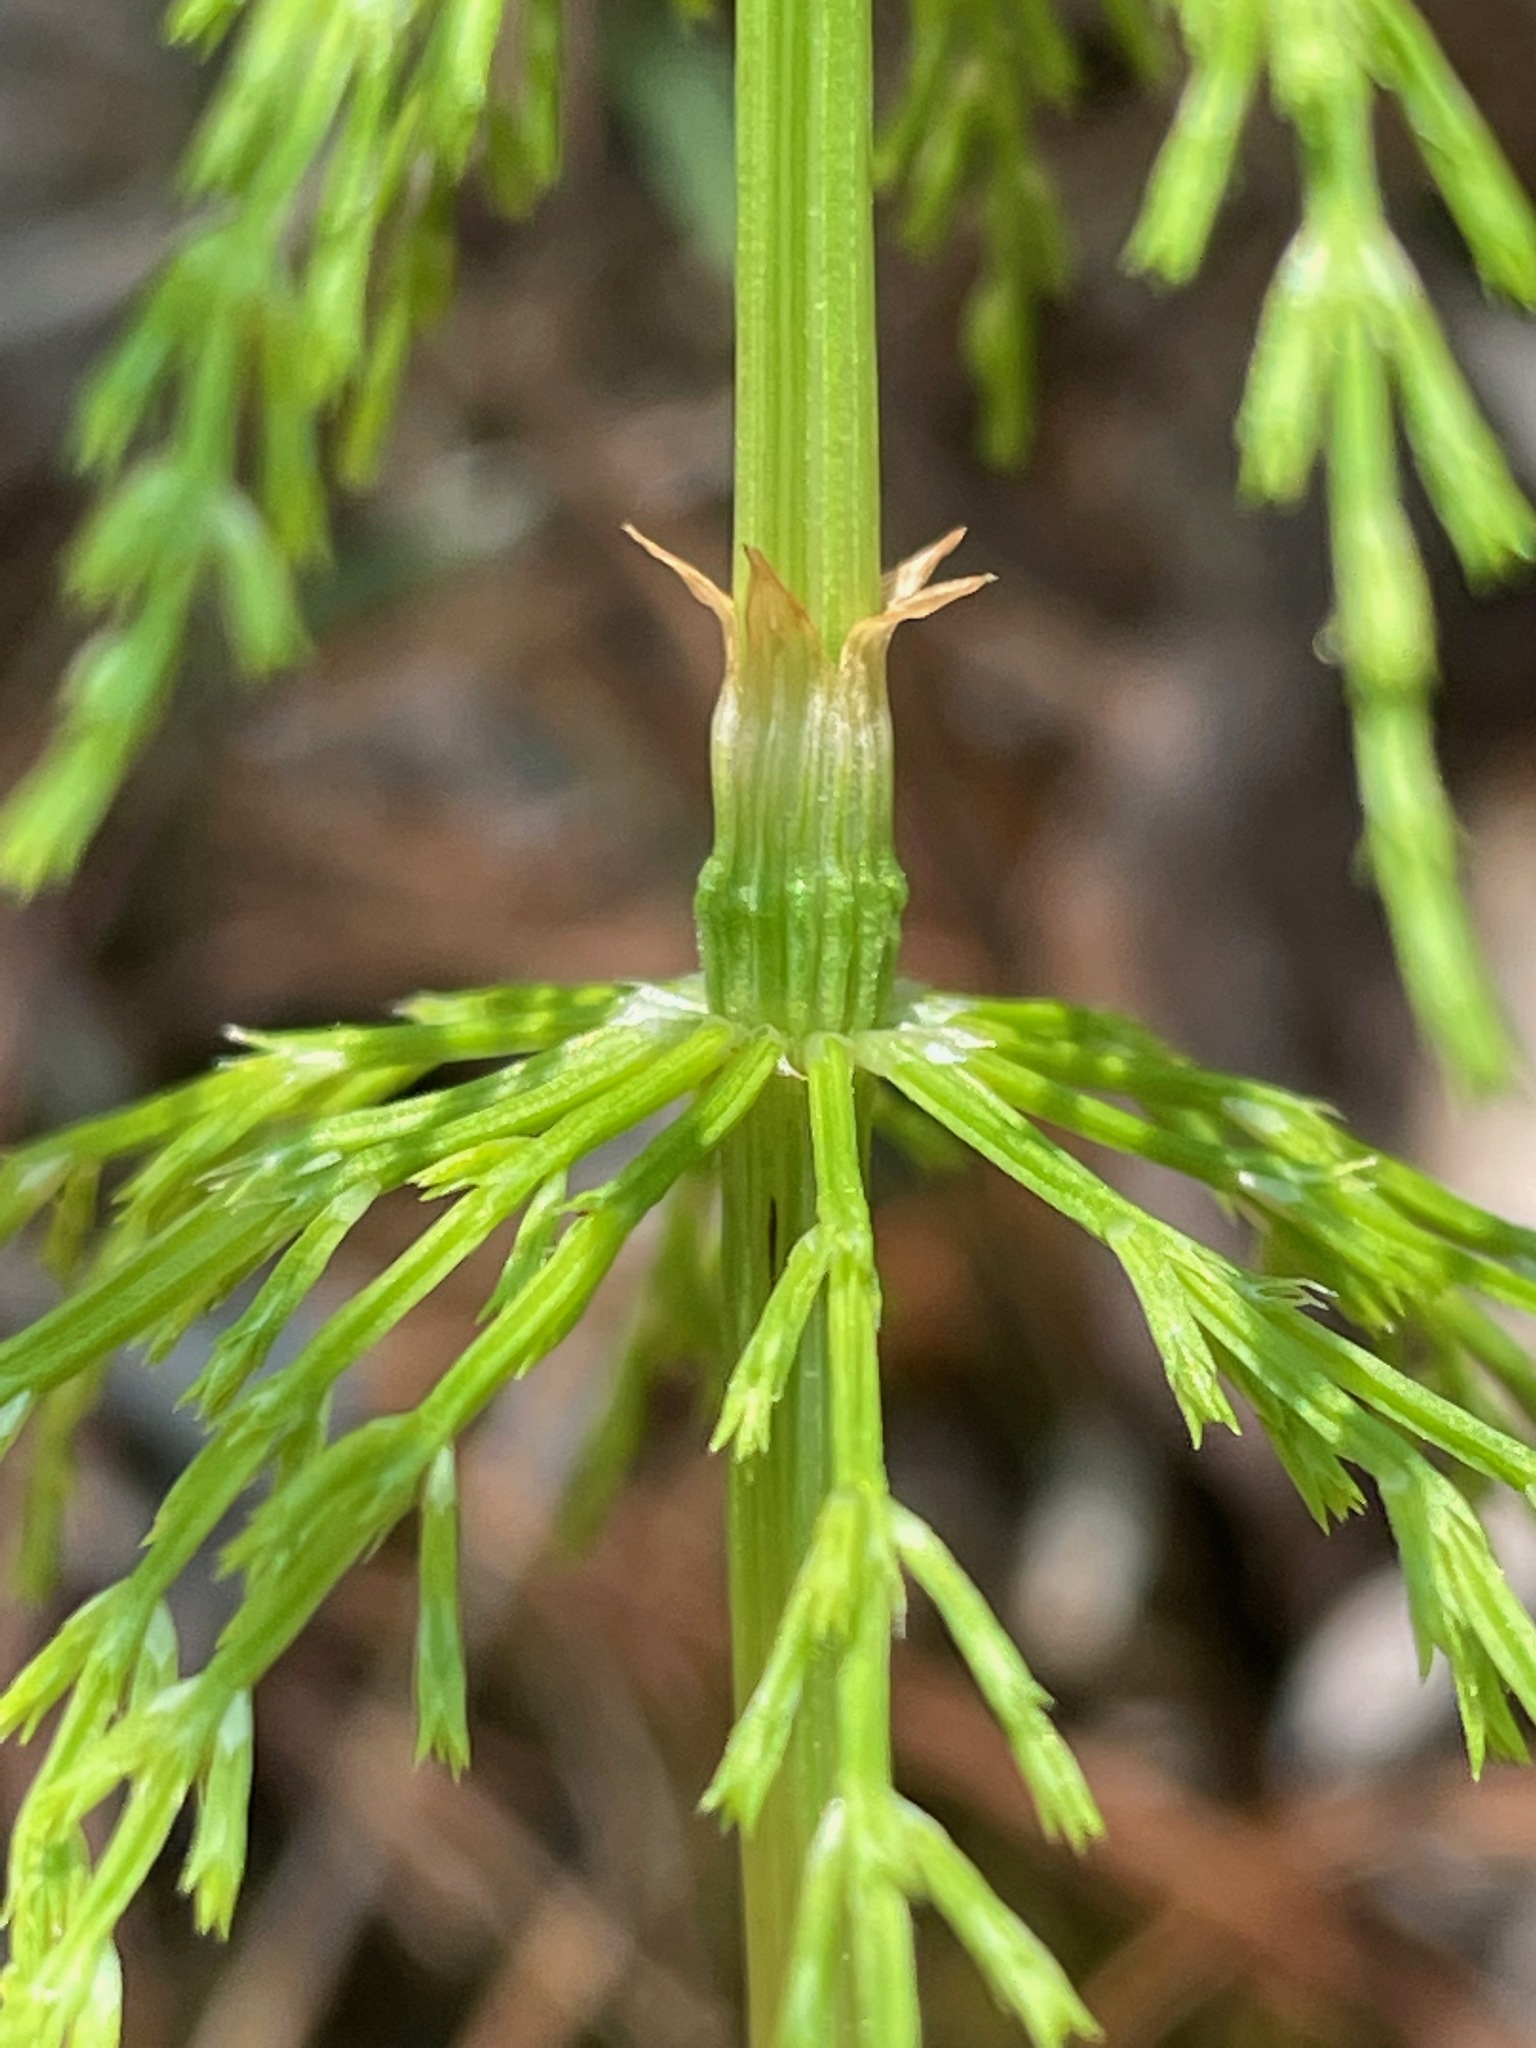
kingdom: Plantae
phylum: Tracheophyta
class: Polypodiopsida
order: Equisetales
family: Equisetaceae
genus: Equisetum
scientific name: Equisetum sylvaticum
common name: Wood horsetail
